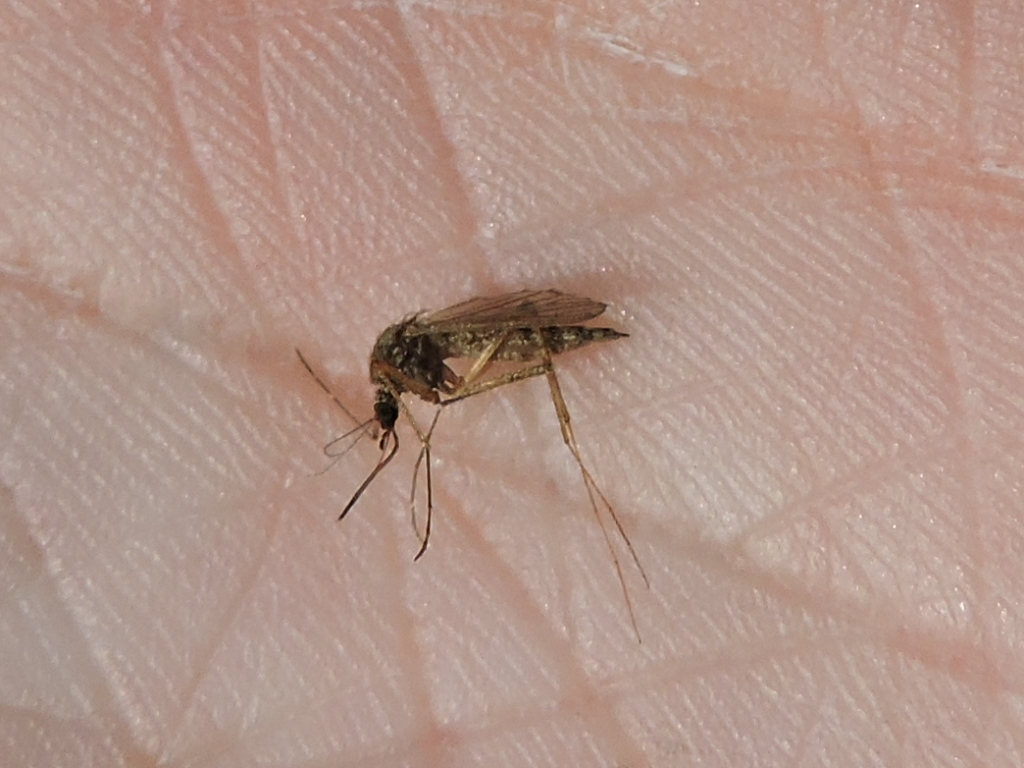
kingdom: Animalia
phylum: Arthropoda
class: Insecta
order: Diptera
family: Culicidae
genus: Culex
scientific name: Culex quinquefasciatus
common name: Southern house mosquito
